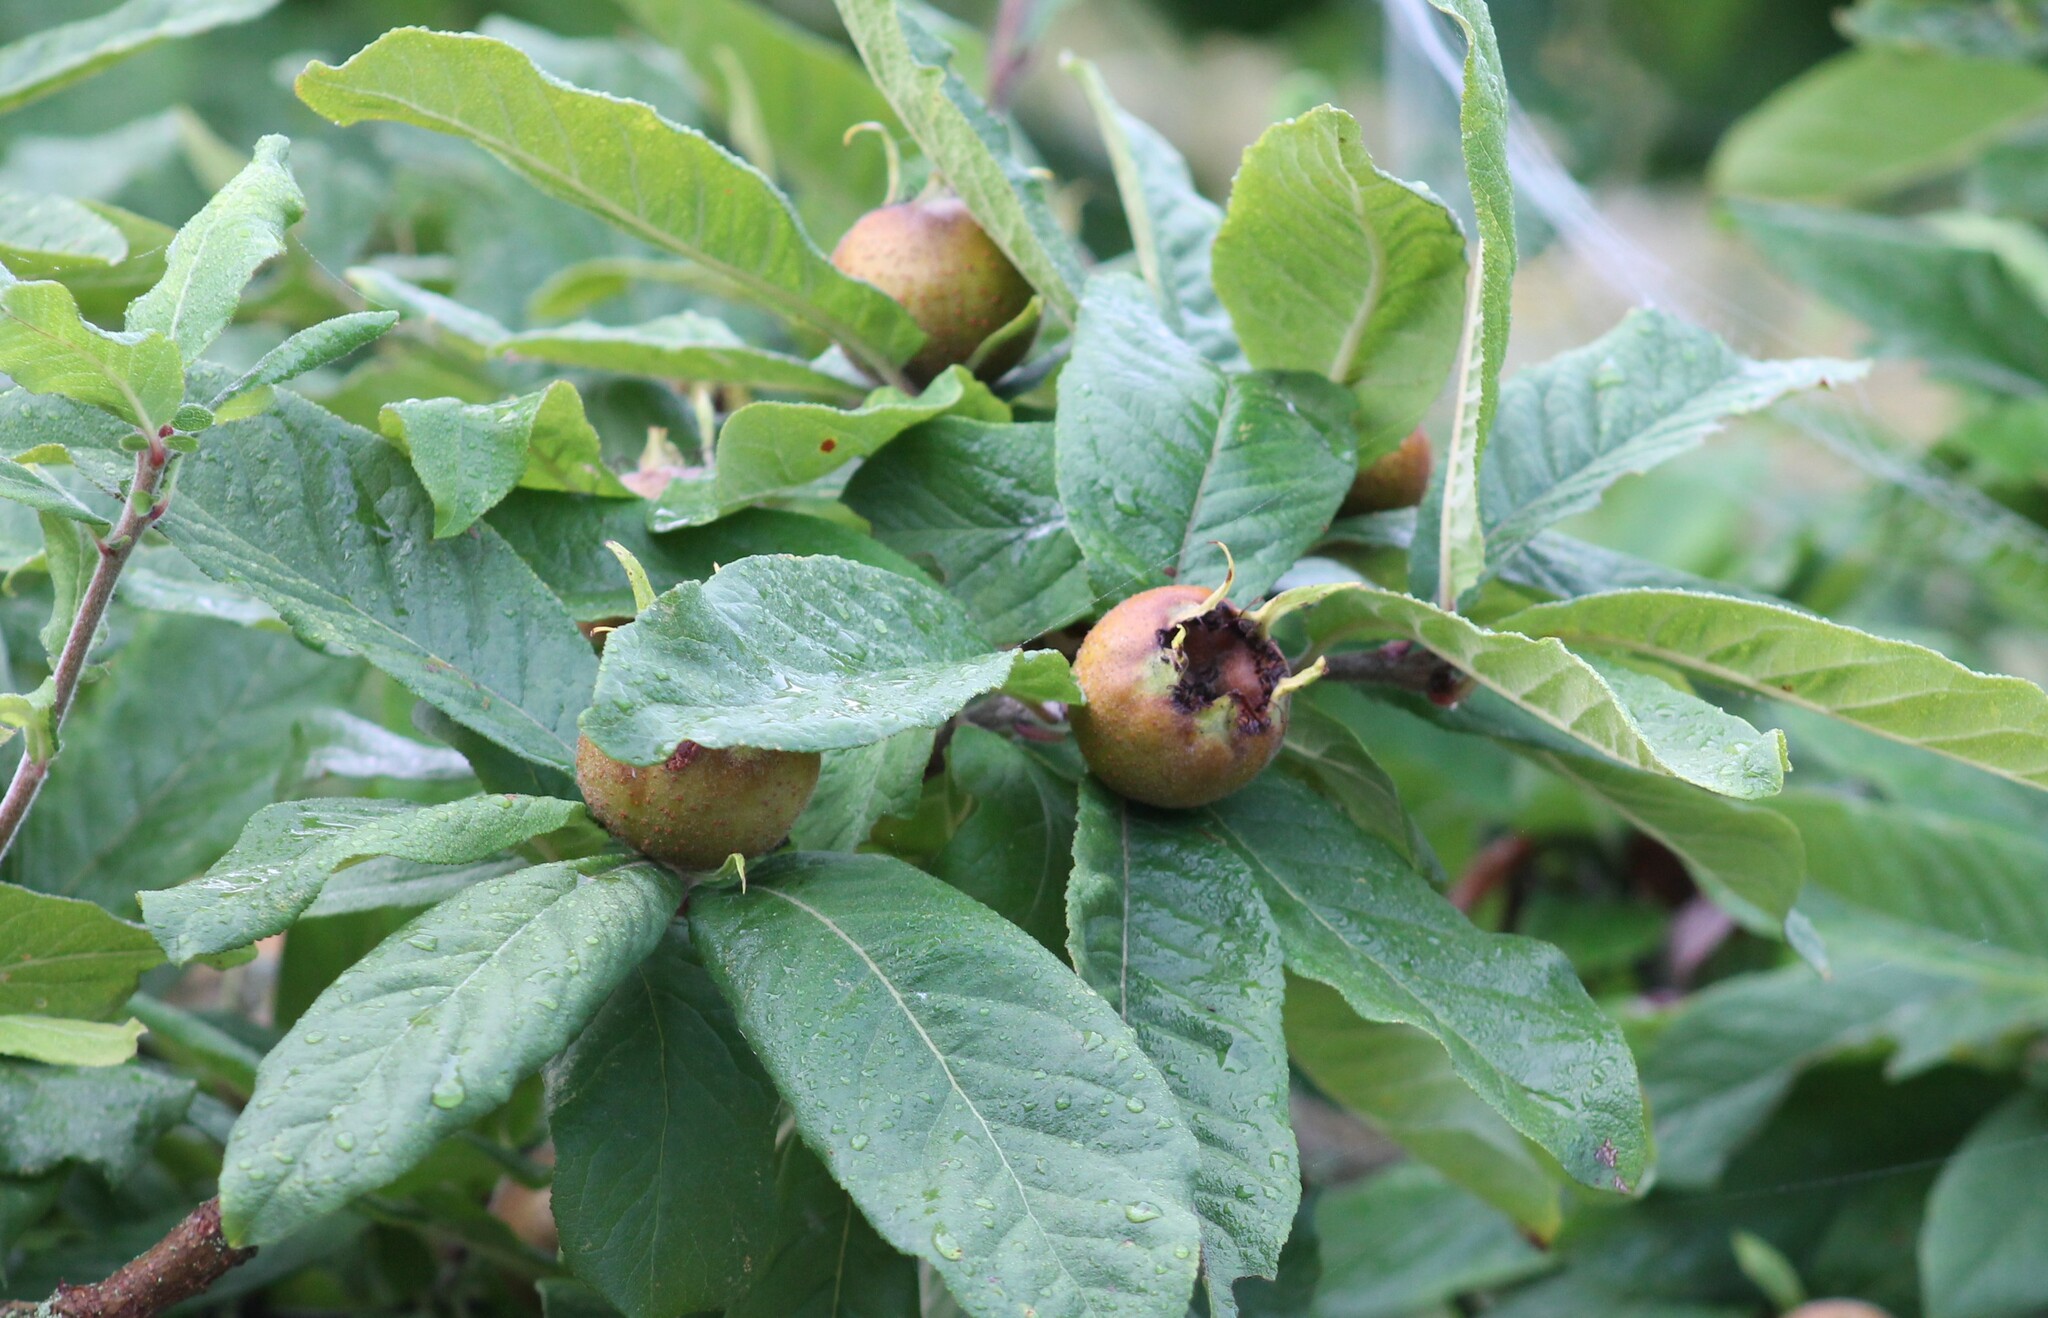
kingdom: Plantae
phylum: Tracheophyta
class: Magnoliopsida
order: Rosales
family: Rosaceae
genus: Mespilus
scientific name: Mespilus germanica
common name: Medlar
